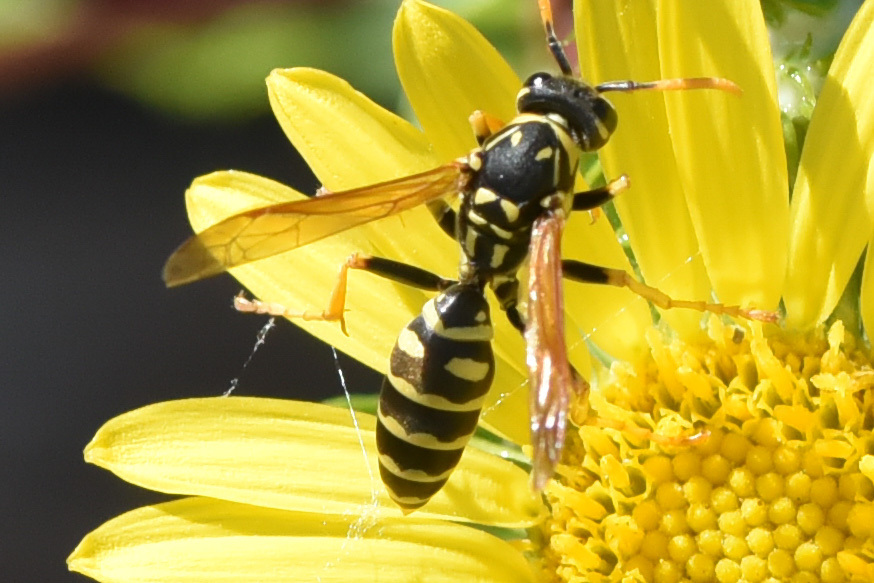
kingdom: Animalia
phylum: Arthropoda
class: Insecta
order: Hymenoptera
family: Eumenidae
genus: Polistes
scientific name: Polistes dominula
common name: Paper wasp
